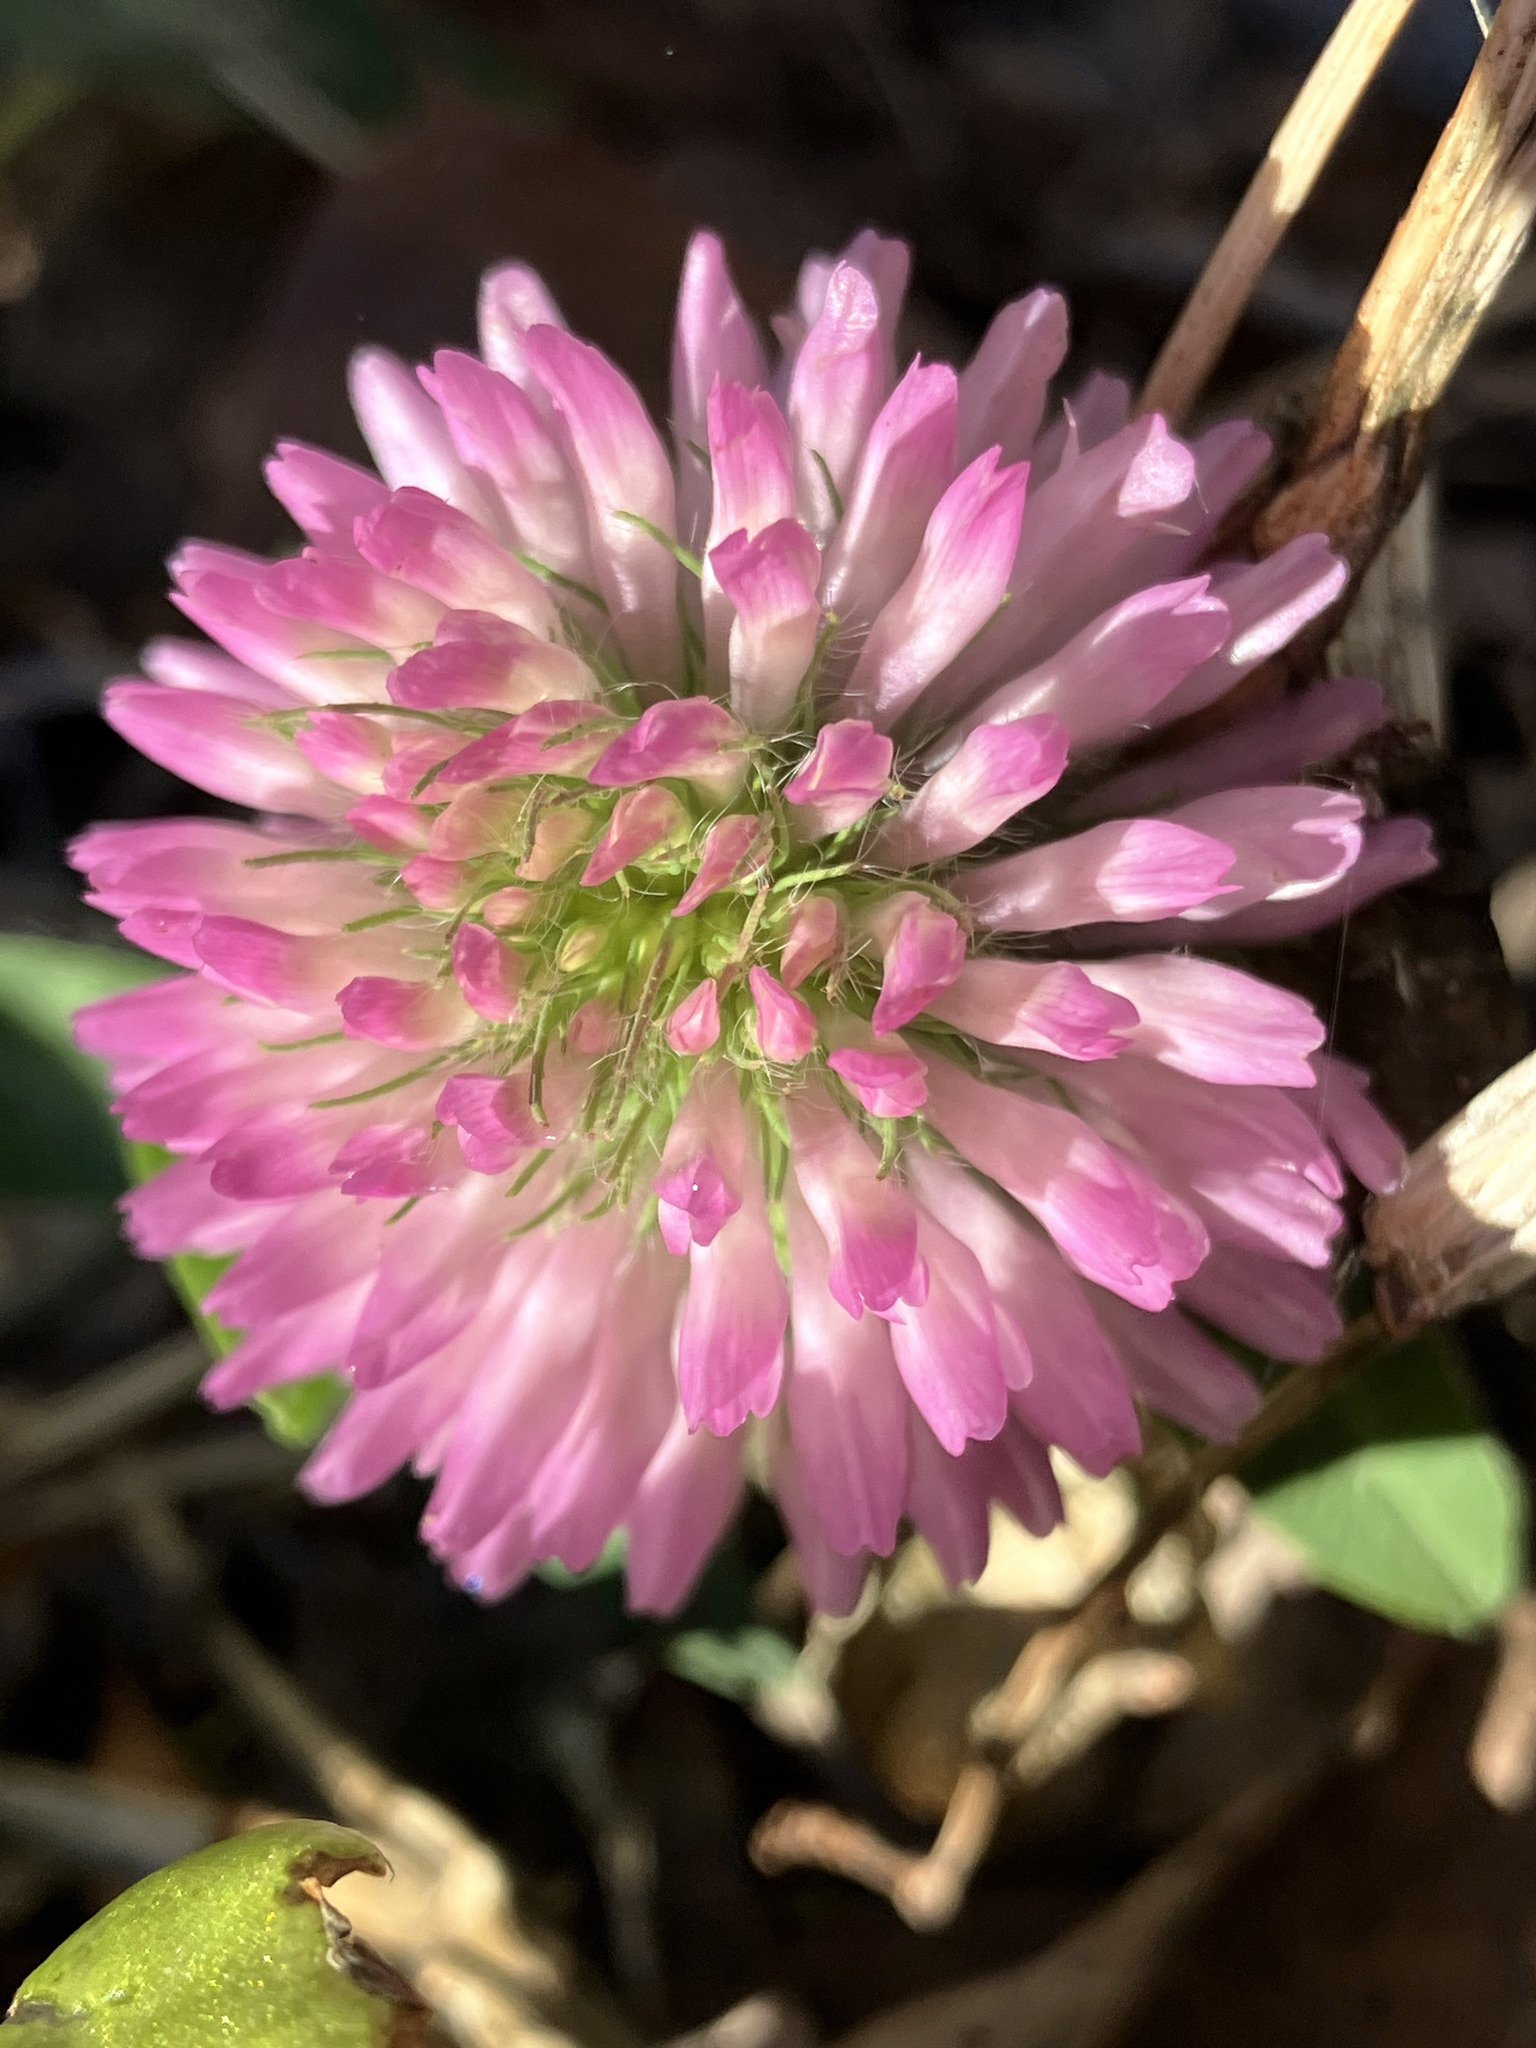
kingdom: Plantae
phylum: Tracheophyta
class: Magnoliopsida
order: Fabales
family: Fabaceae
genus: Trifolium
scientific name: Trifolium pratense
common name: Red clover
